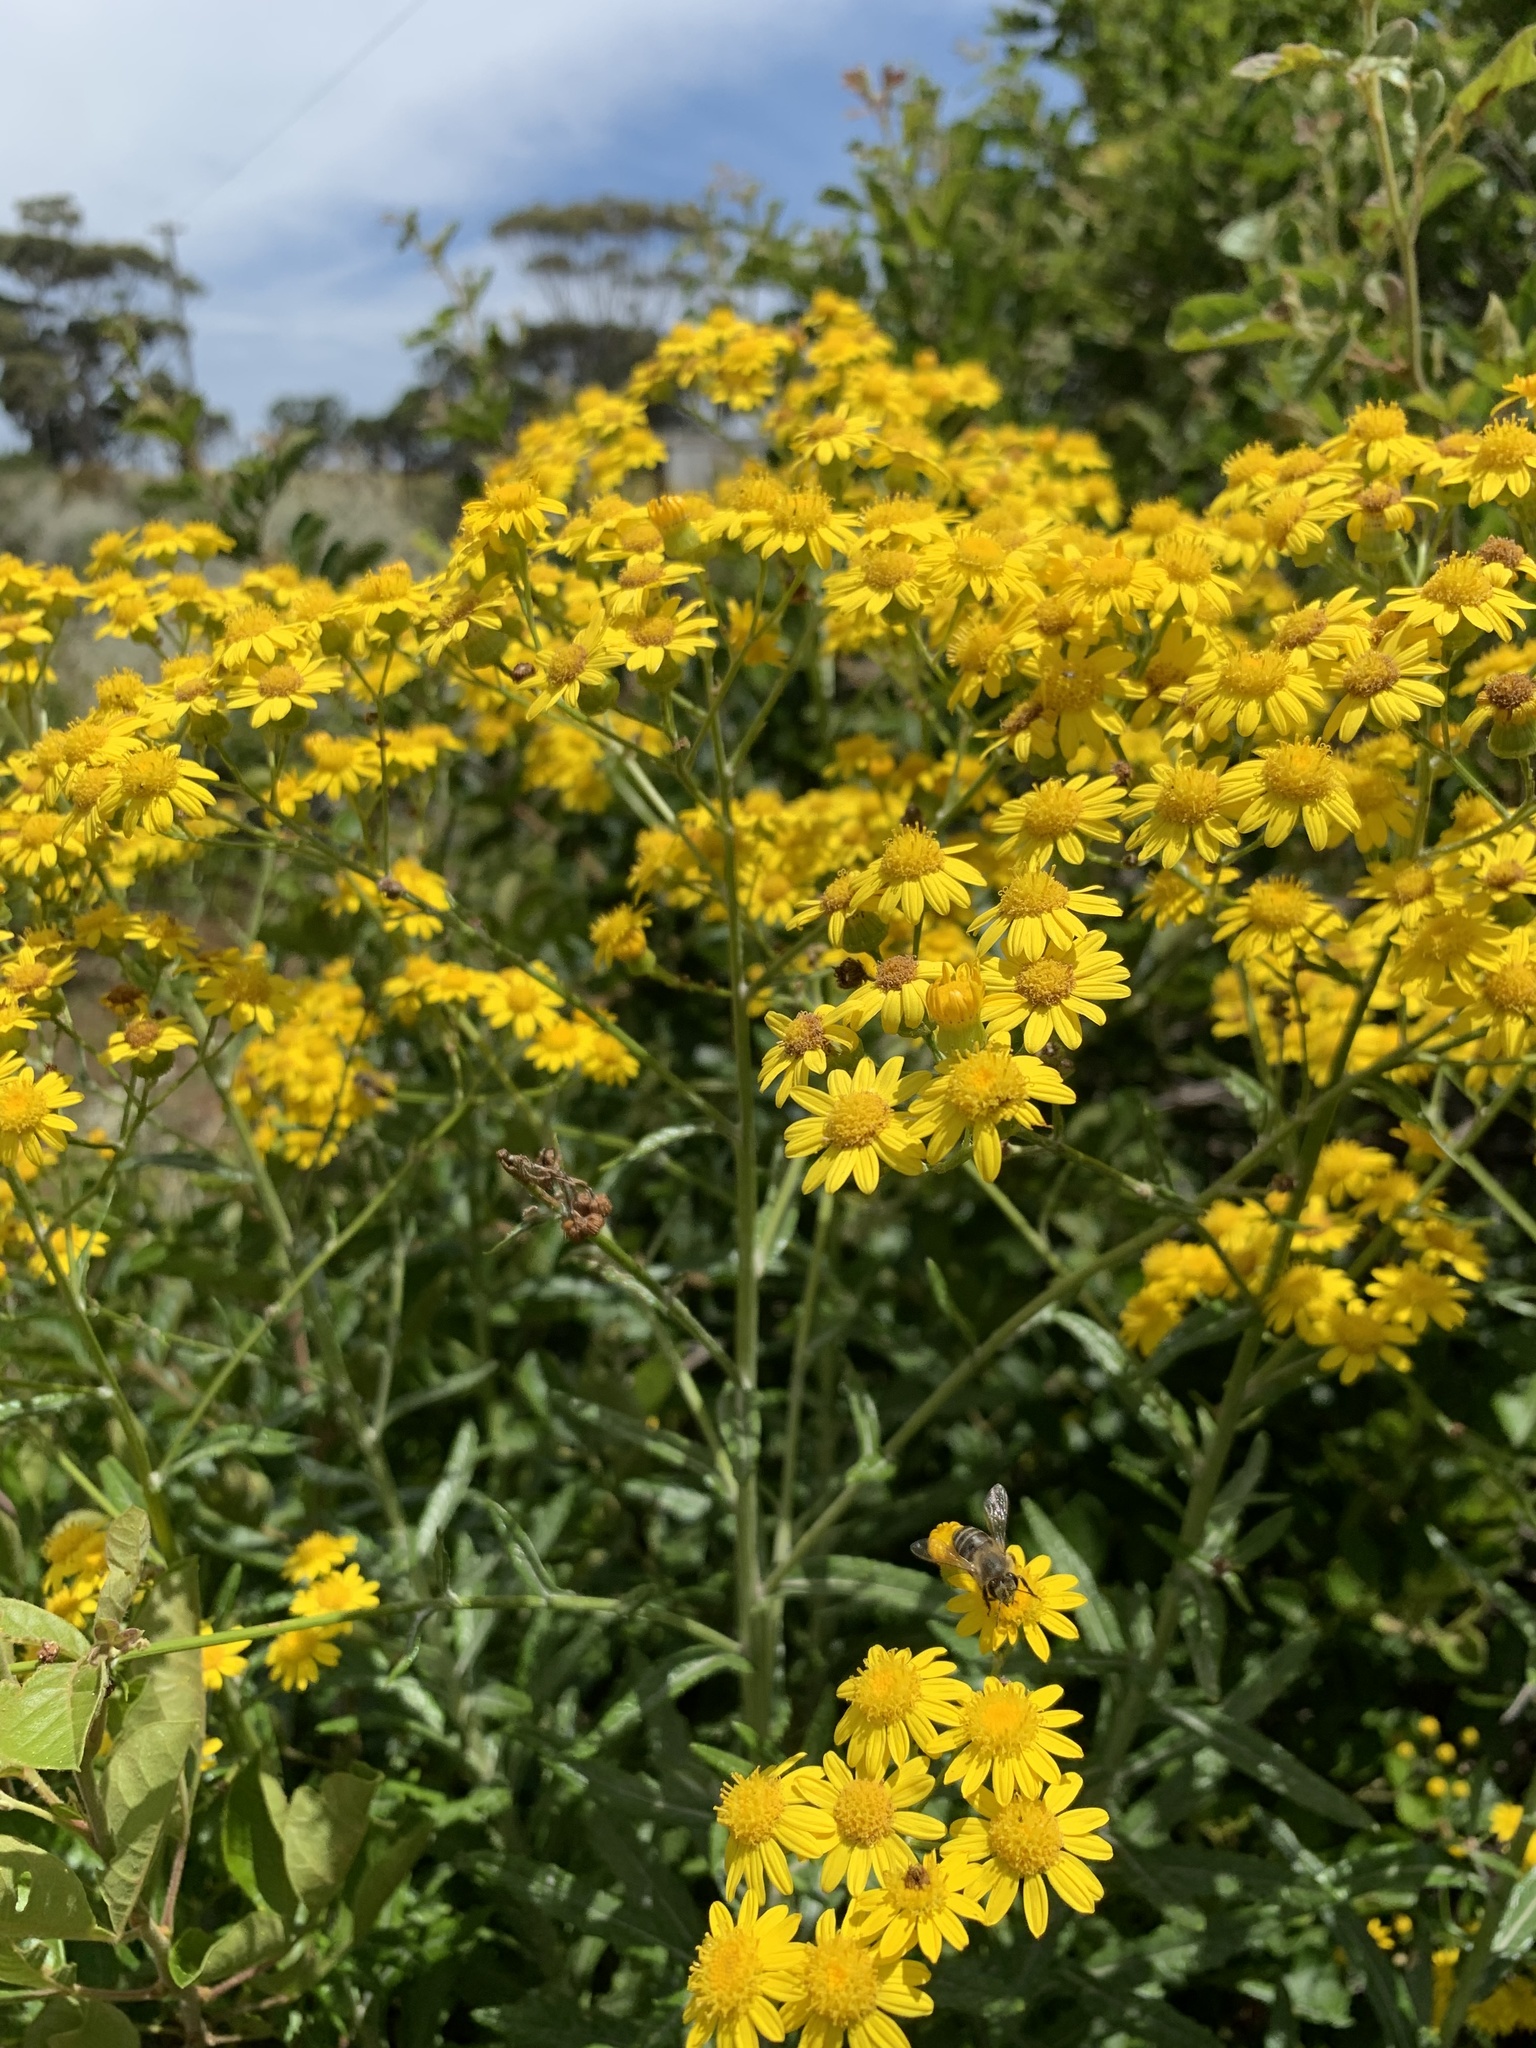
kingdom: Plantae
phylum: Tracheophyta
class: Magnoliopsida
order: Asterales
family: Asteraceae
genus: Senecio
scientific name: Senecio pterophorus
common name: Shoddy ragwort
